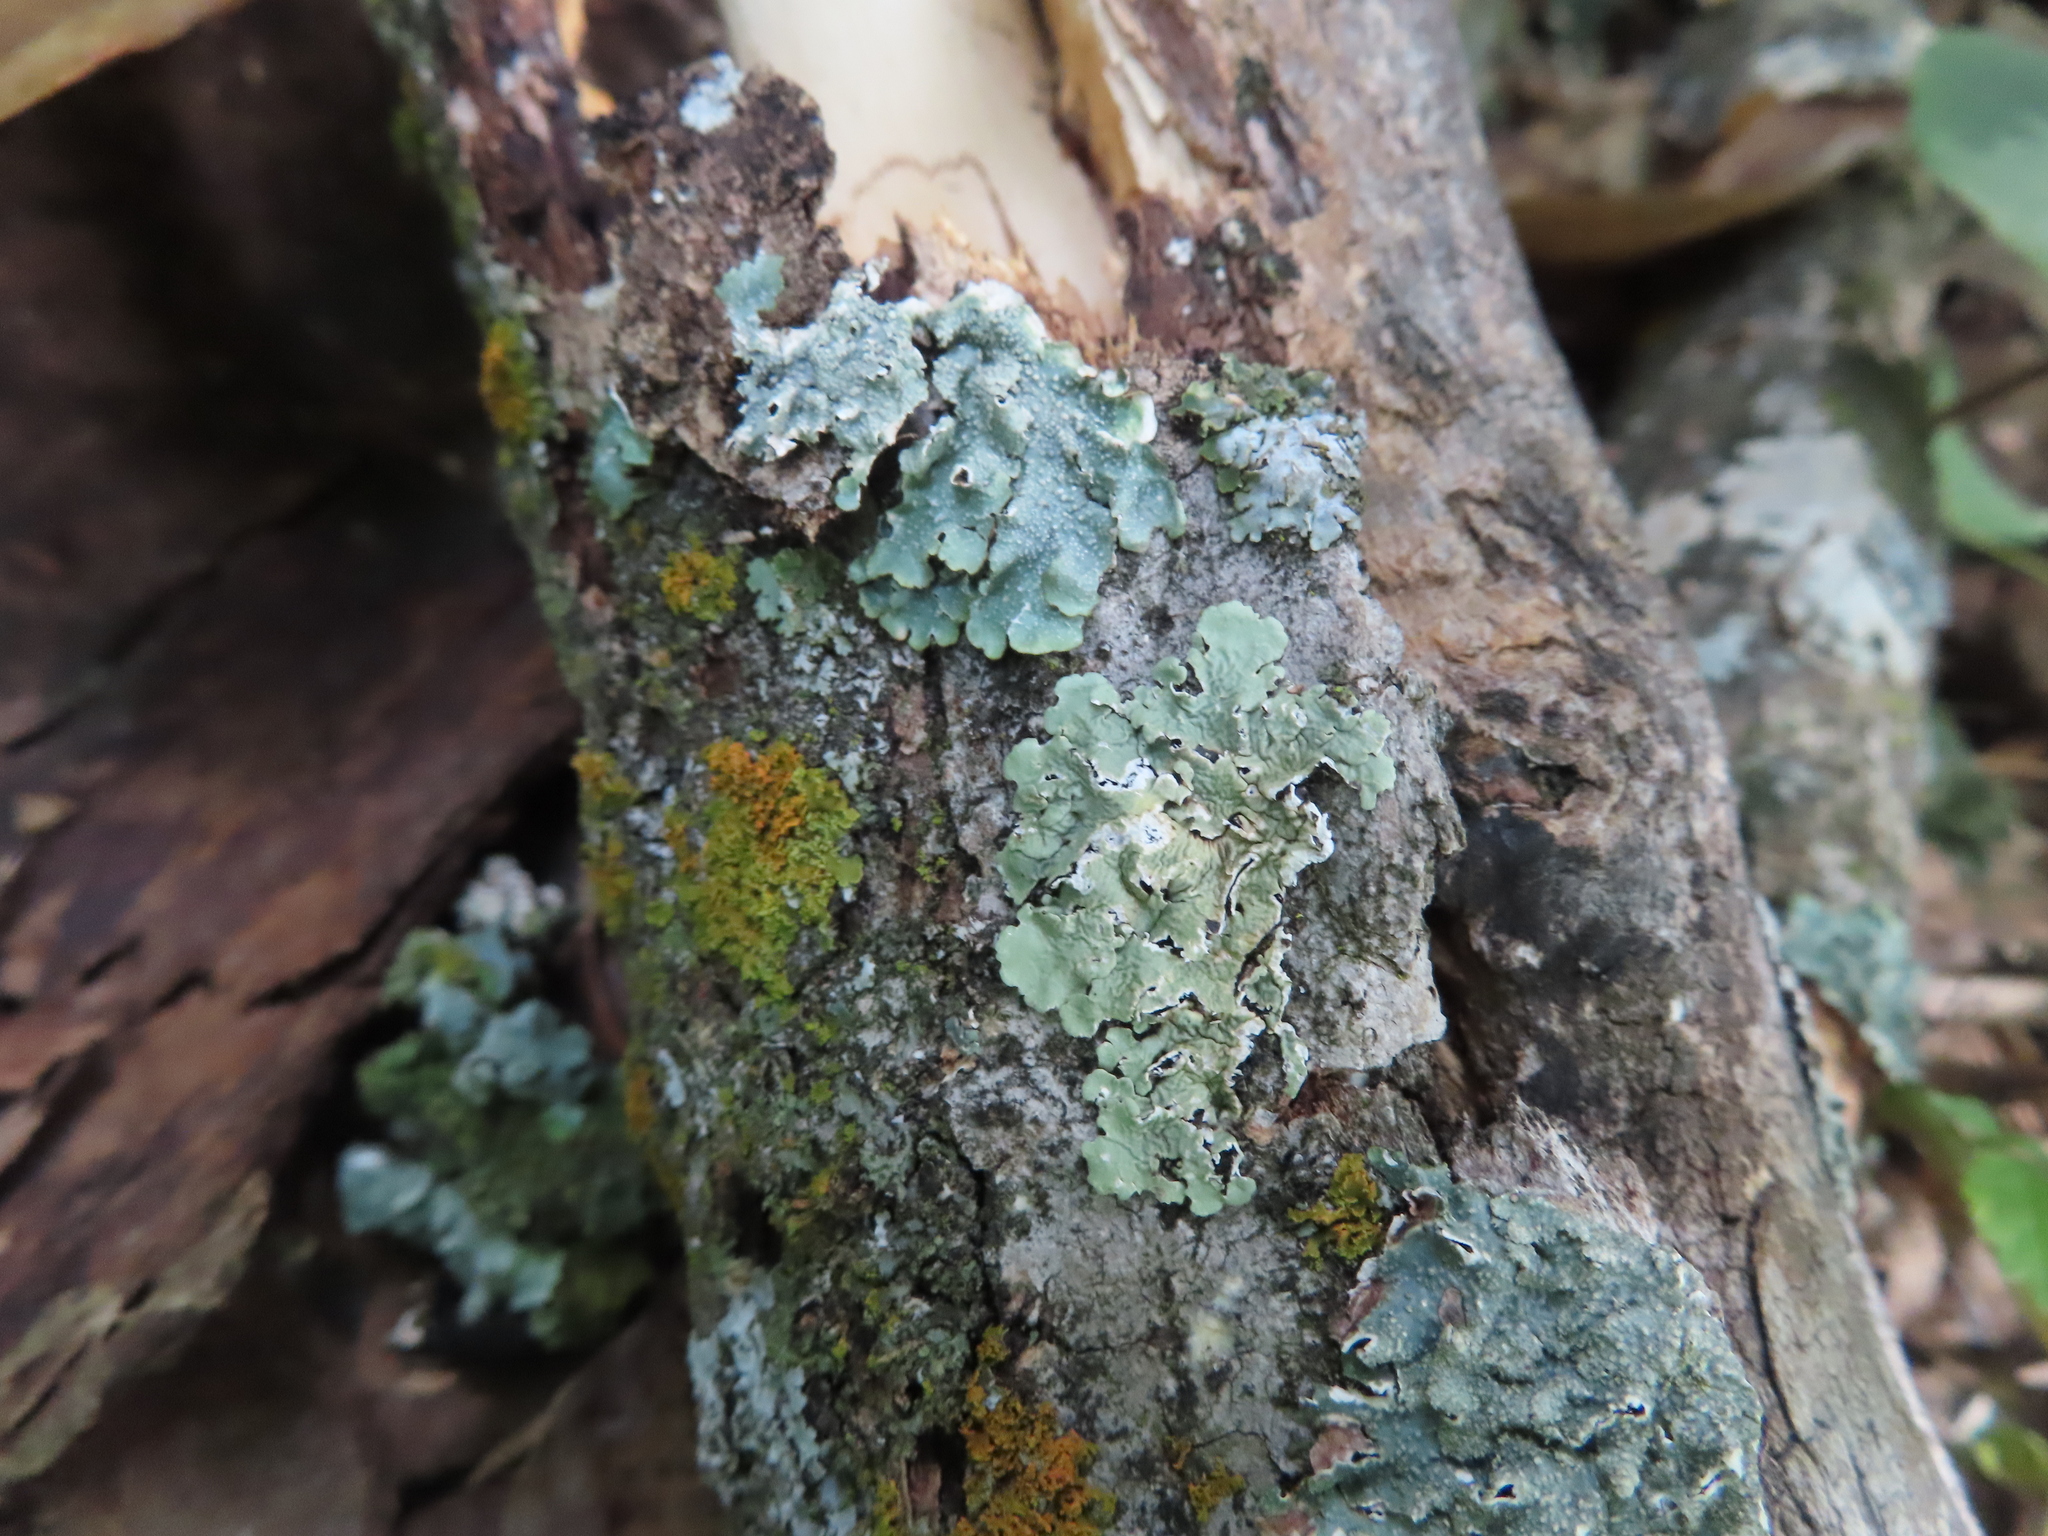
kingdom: Fungi
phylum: Ascomycota
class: Lecanoromycetes
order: Lecanorales
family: Parmeliaceae
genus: Flavoparmelia
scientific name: Flavoparmelia caperata
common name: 40-mile per hour lichen
